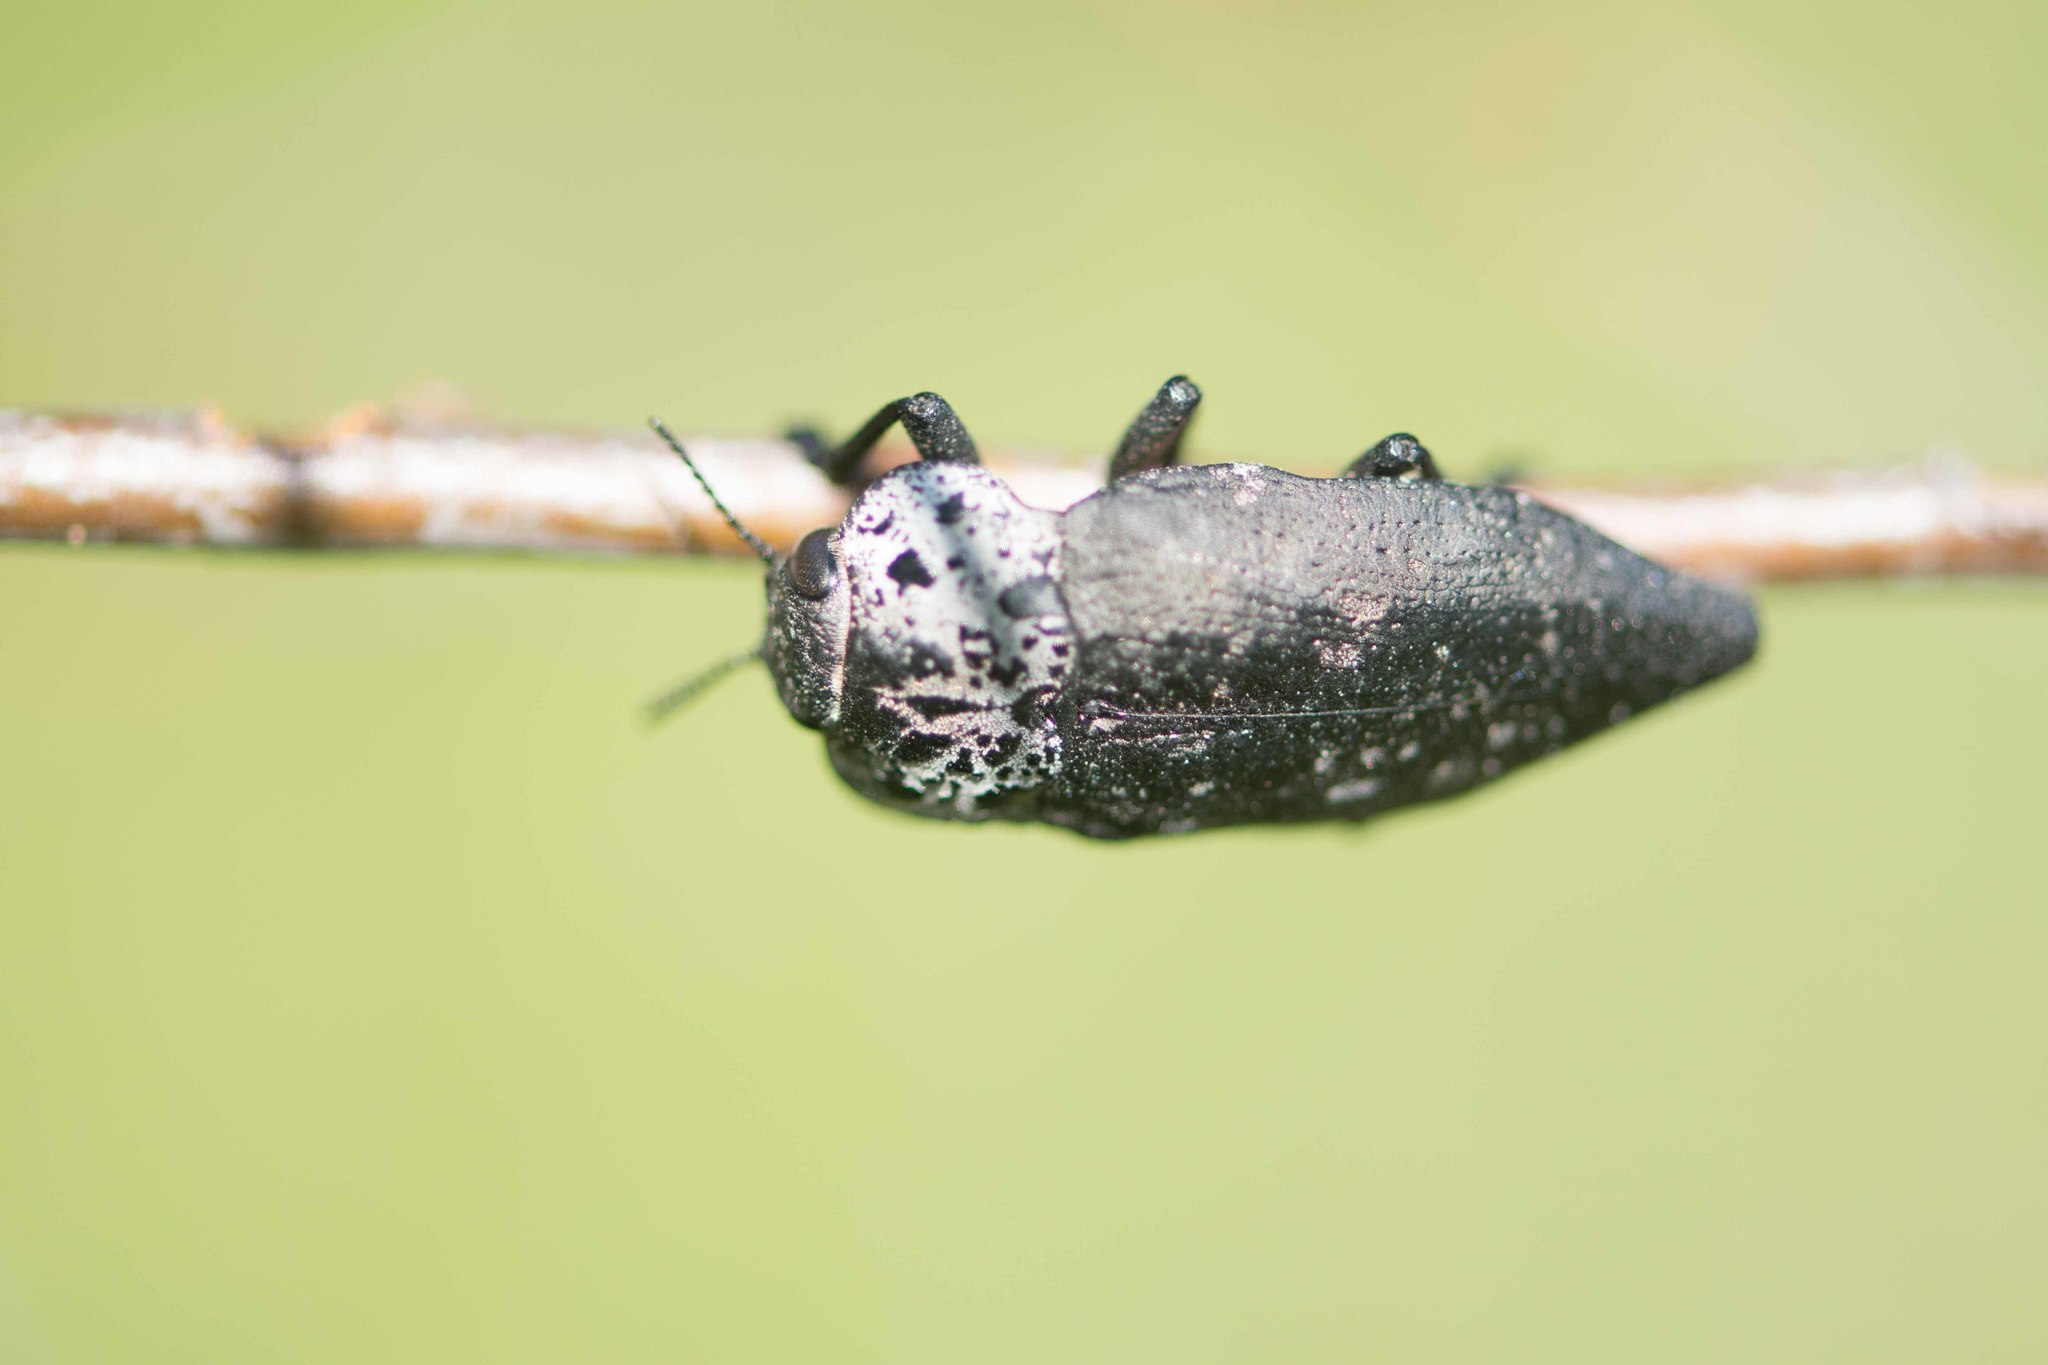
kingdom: Animalia
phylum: Arthropoda
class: Insecta
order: Coleoptera
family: Buprestidae
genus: Capnodis
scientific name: Capnodis tenebrionis
